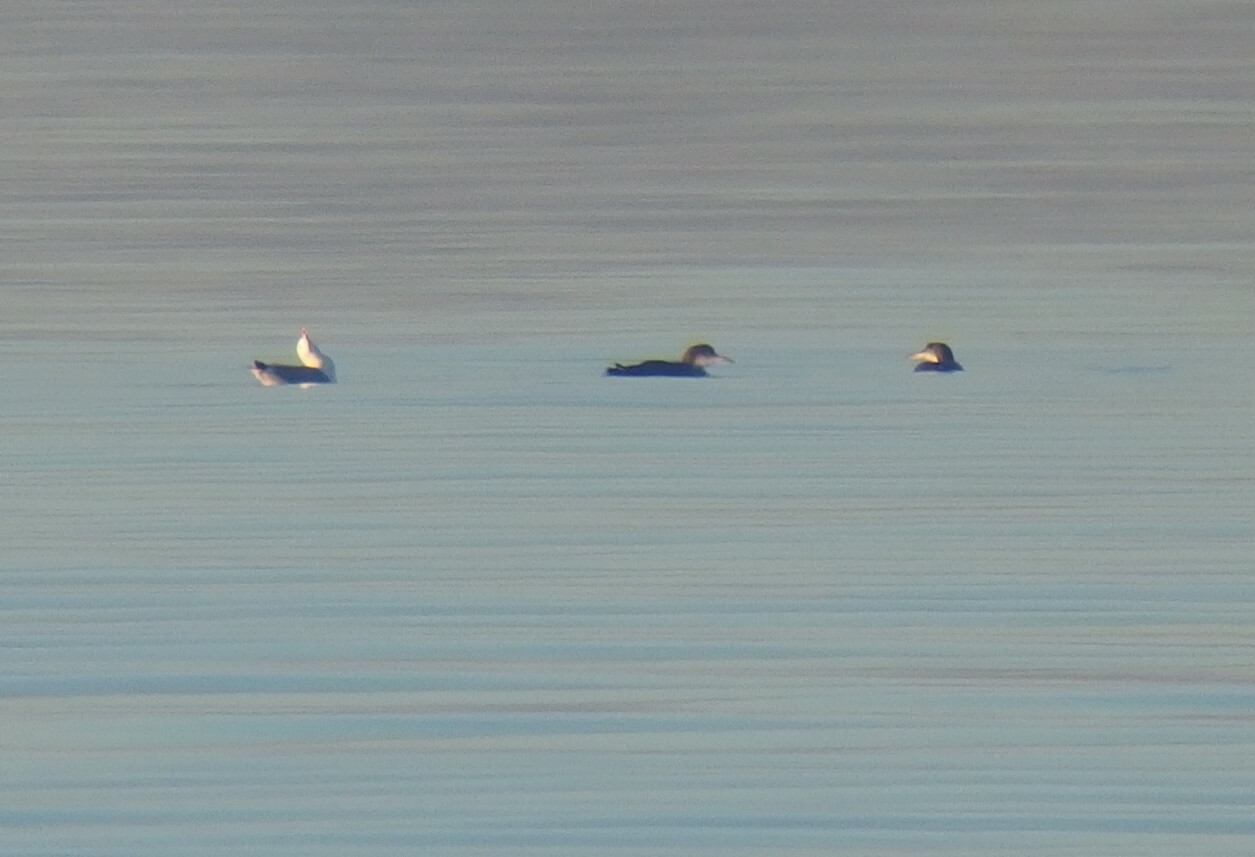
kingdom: Animalia
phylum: Chordata
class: Aves
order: Gaviiformes
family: Gaviidae
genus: Gavia
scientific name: Gavia immer
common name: Common loon
